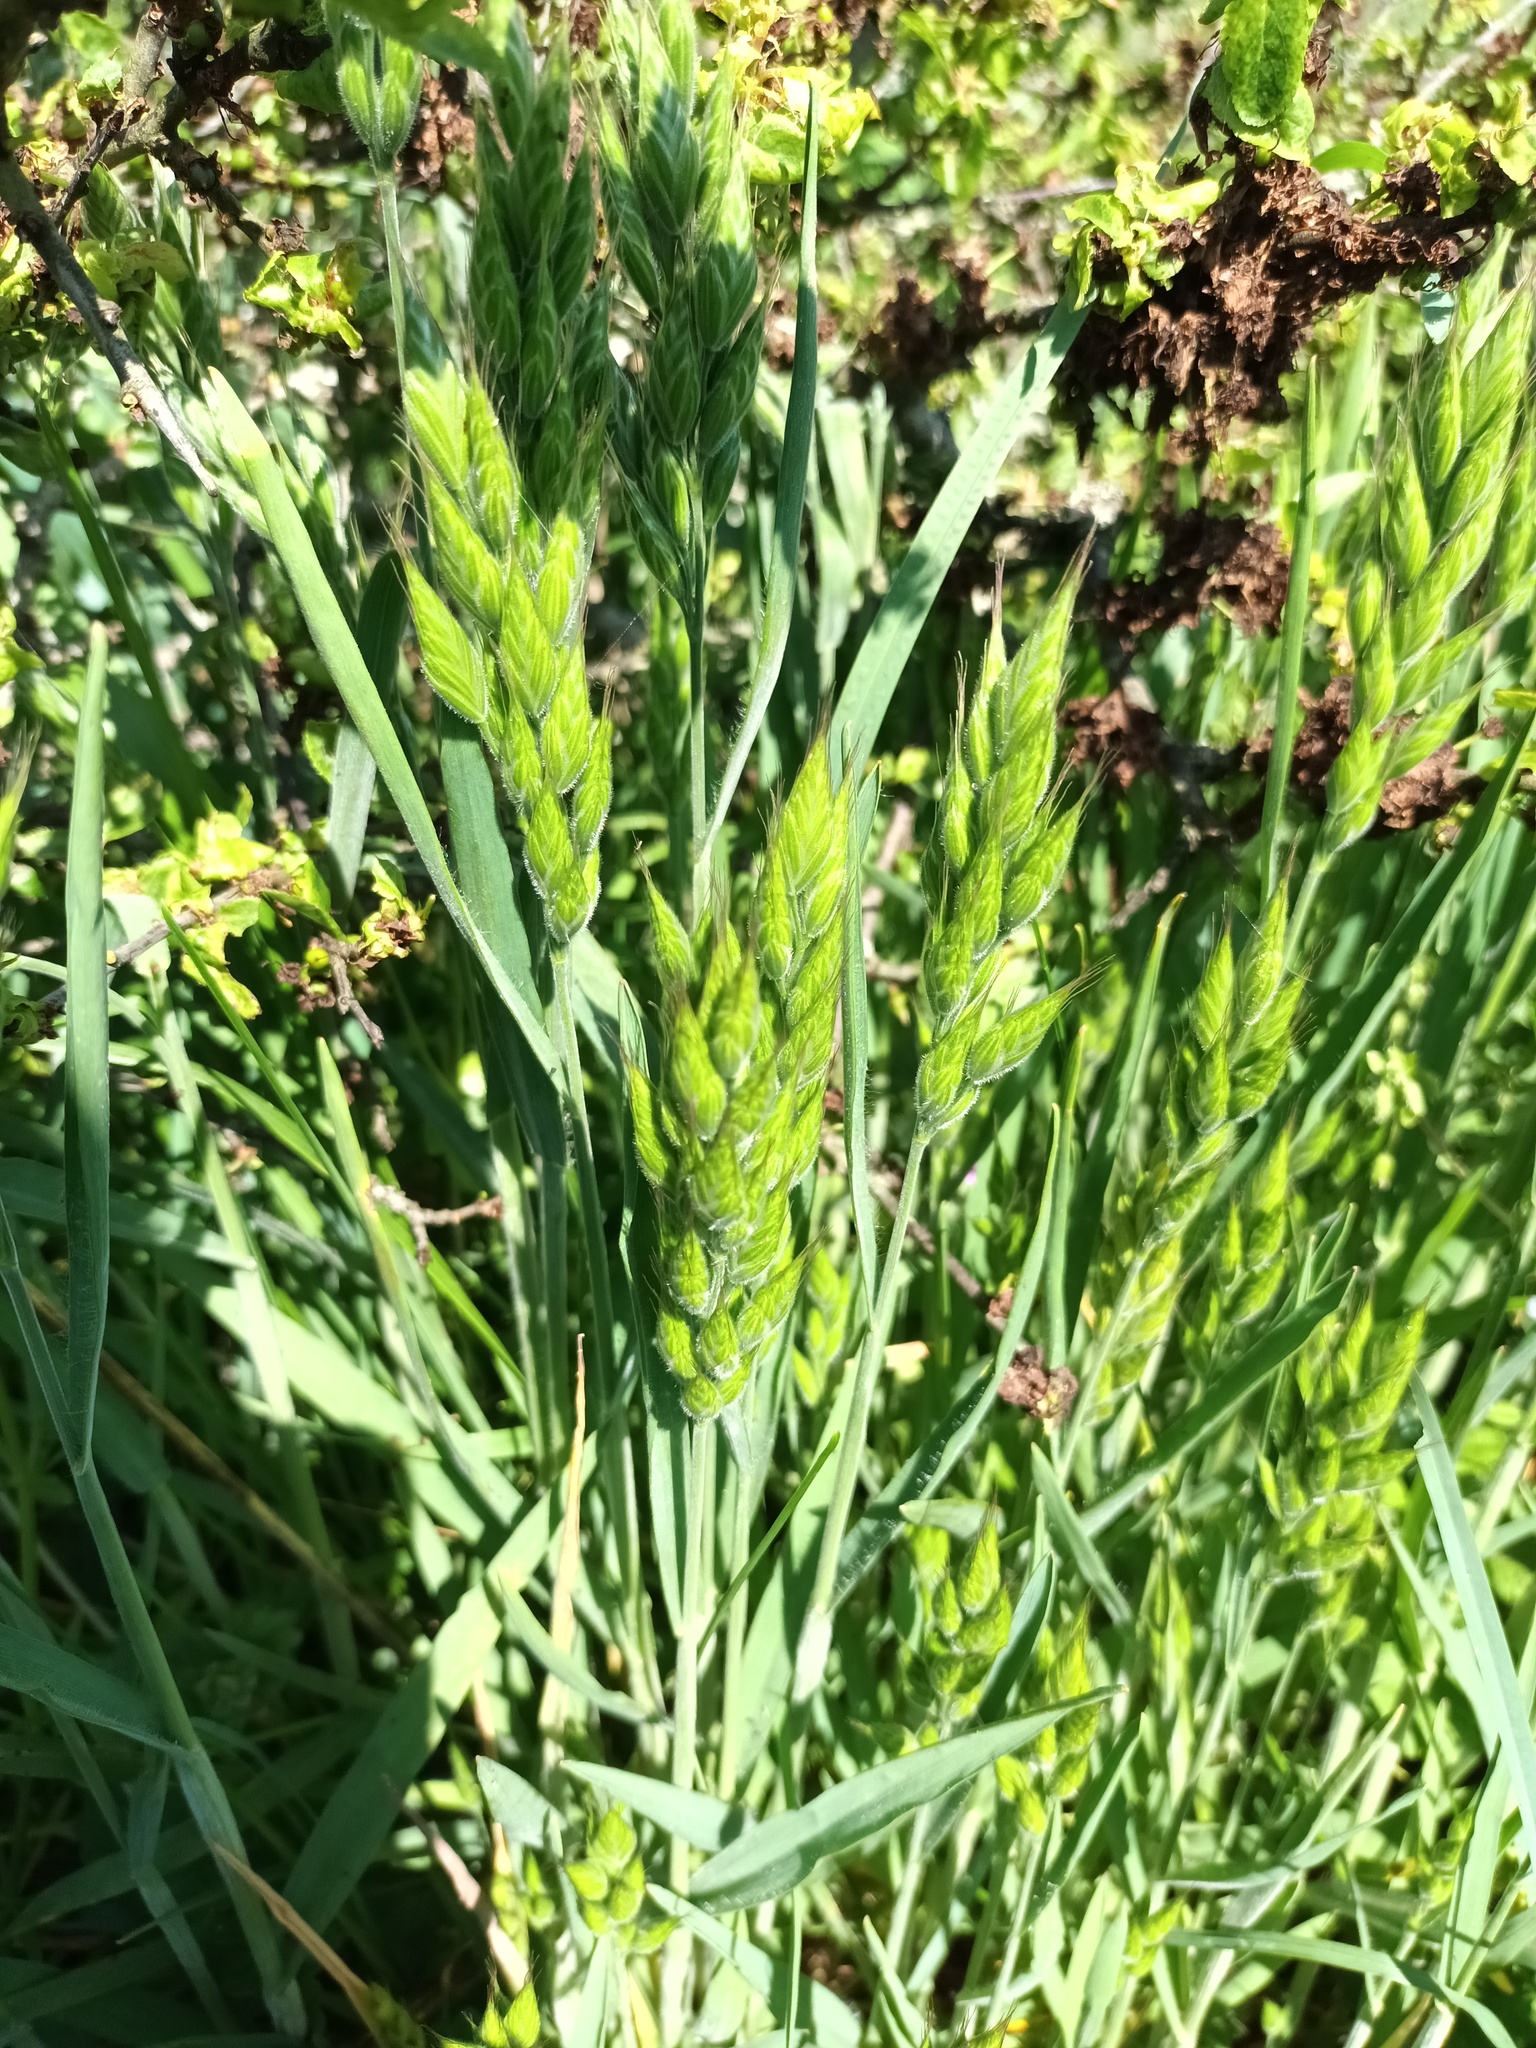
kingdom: Plantae
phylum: Tracheophyta
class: Liliopsida
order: Poales
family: Poaceae
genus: Bromus
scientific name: Bromus hordeaceus
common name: Soft brome
